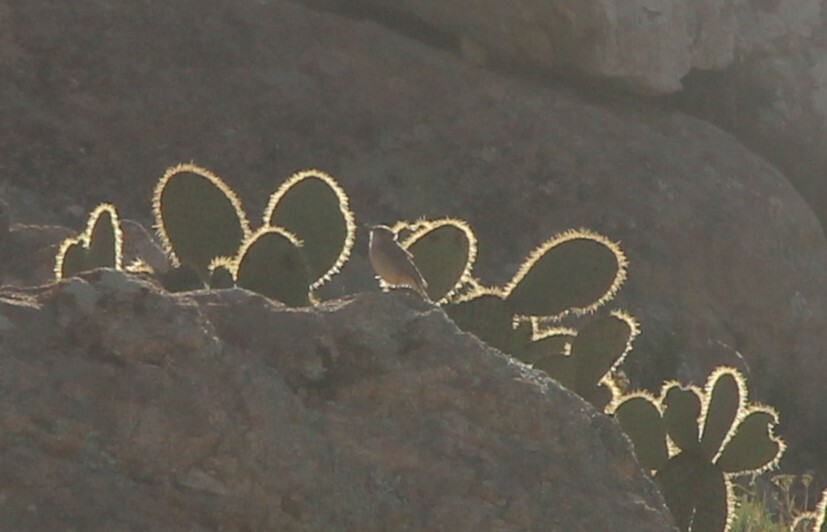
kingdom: Animalia
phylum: Chordata
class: Aves
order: Passeriformes
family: Troglodytidae
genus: Salpinctes
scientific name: Salpinctes obsoletus
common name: Rock wren
